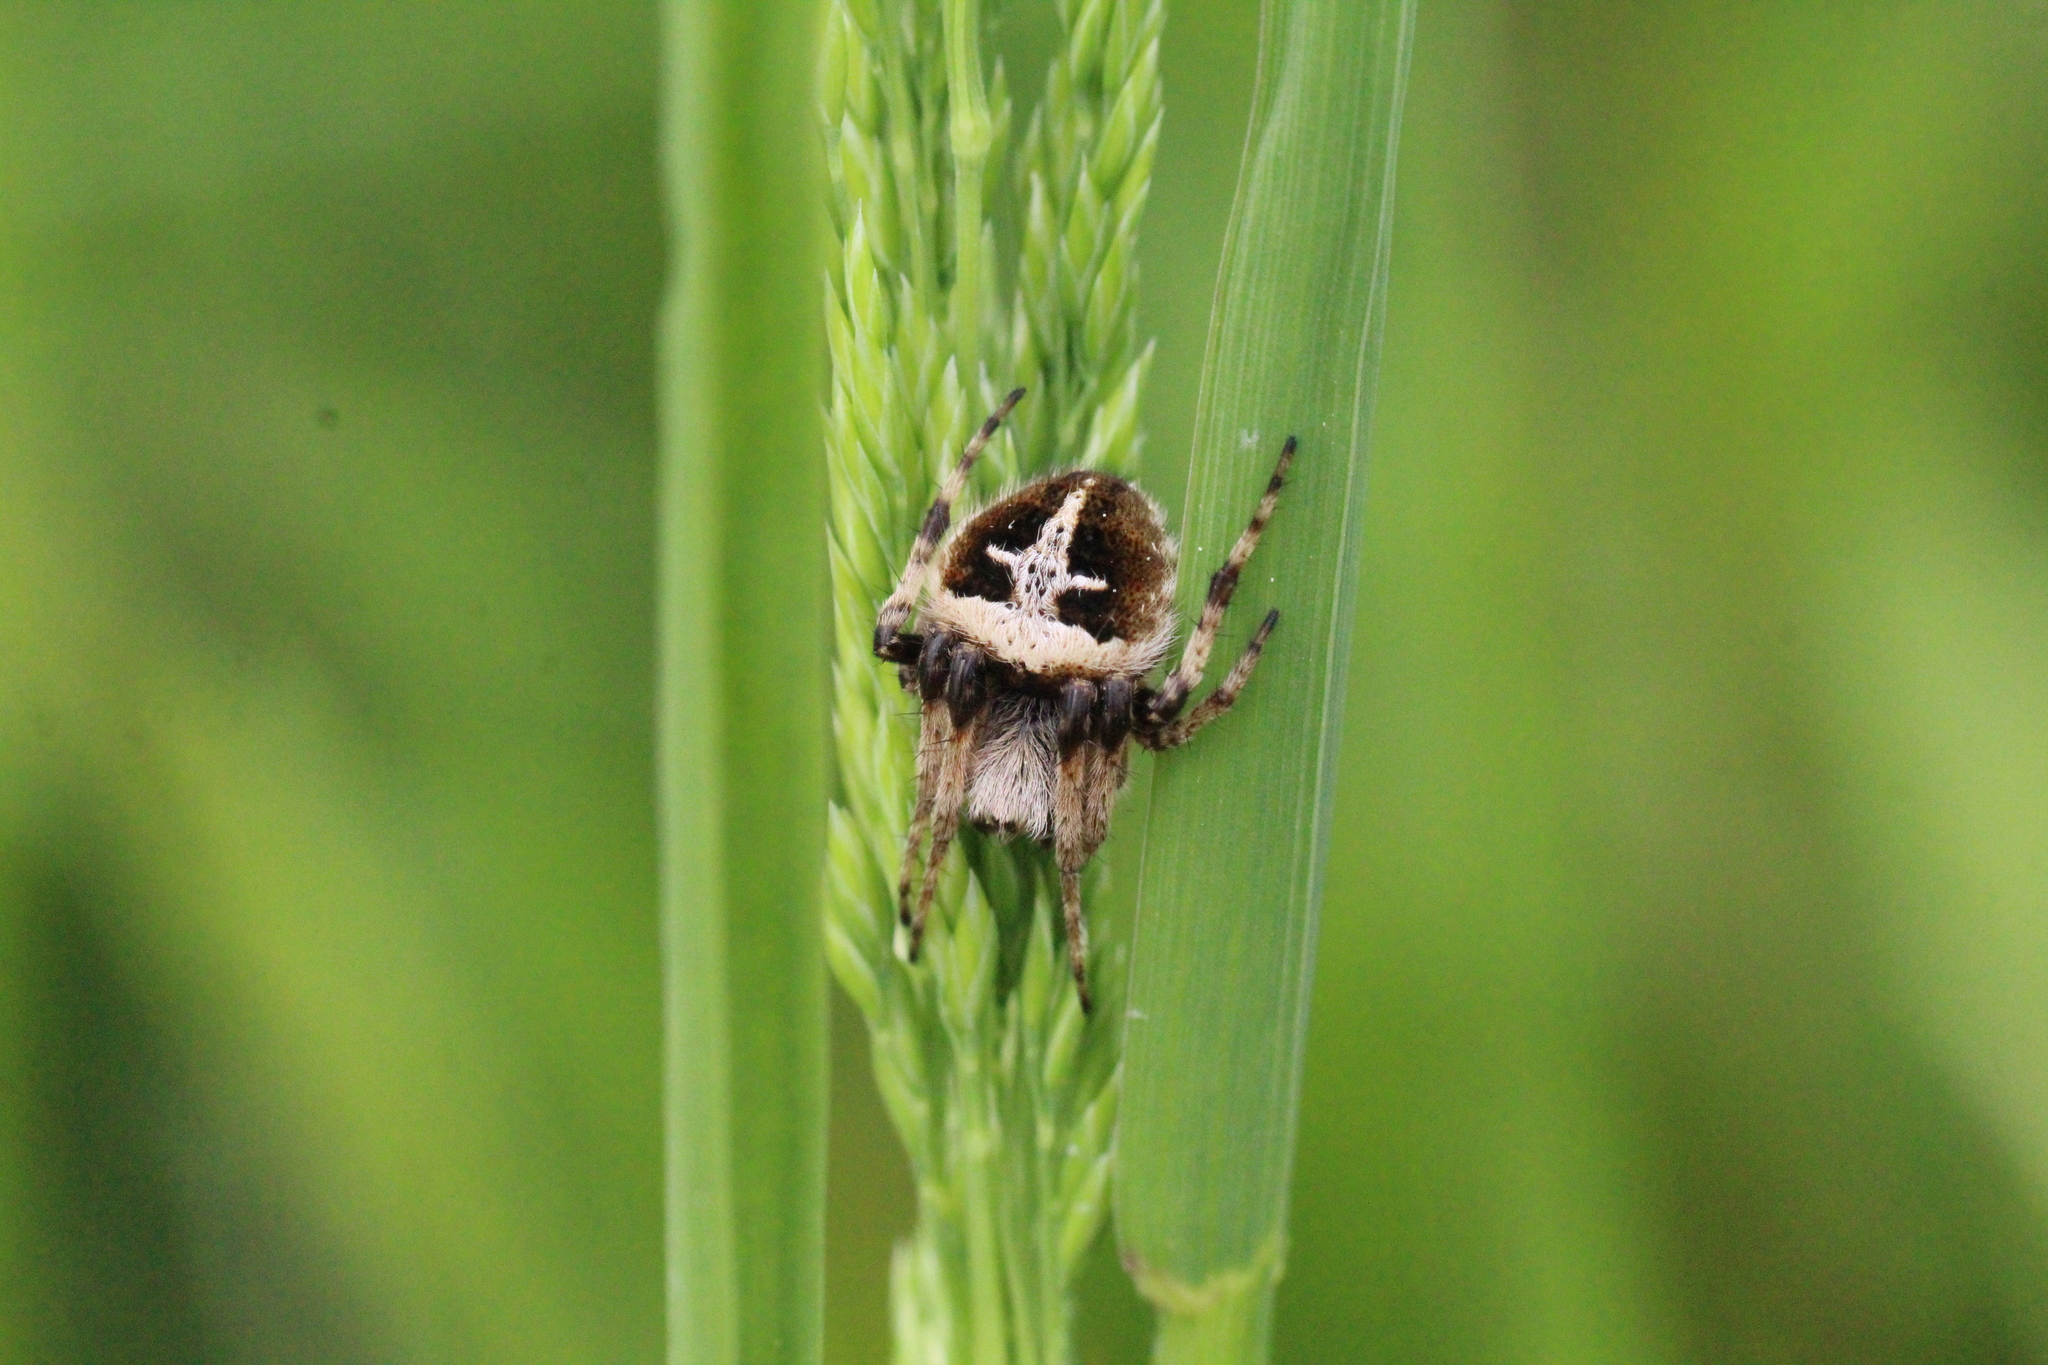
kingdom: Animalia
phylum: Arthropoda
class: Arachnida
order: Araneae
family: Araneidae
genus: Agalenatea
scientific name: Agalenatea redii
